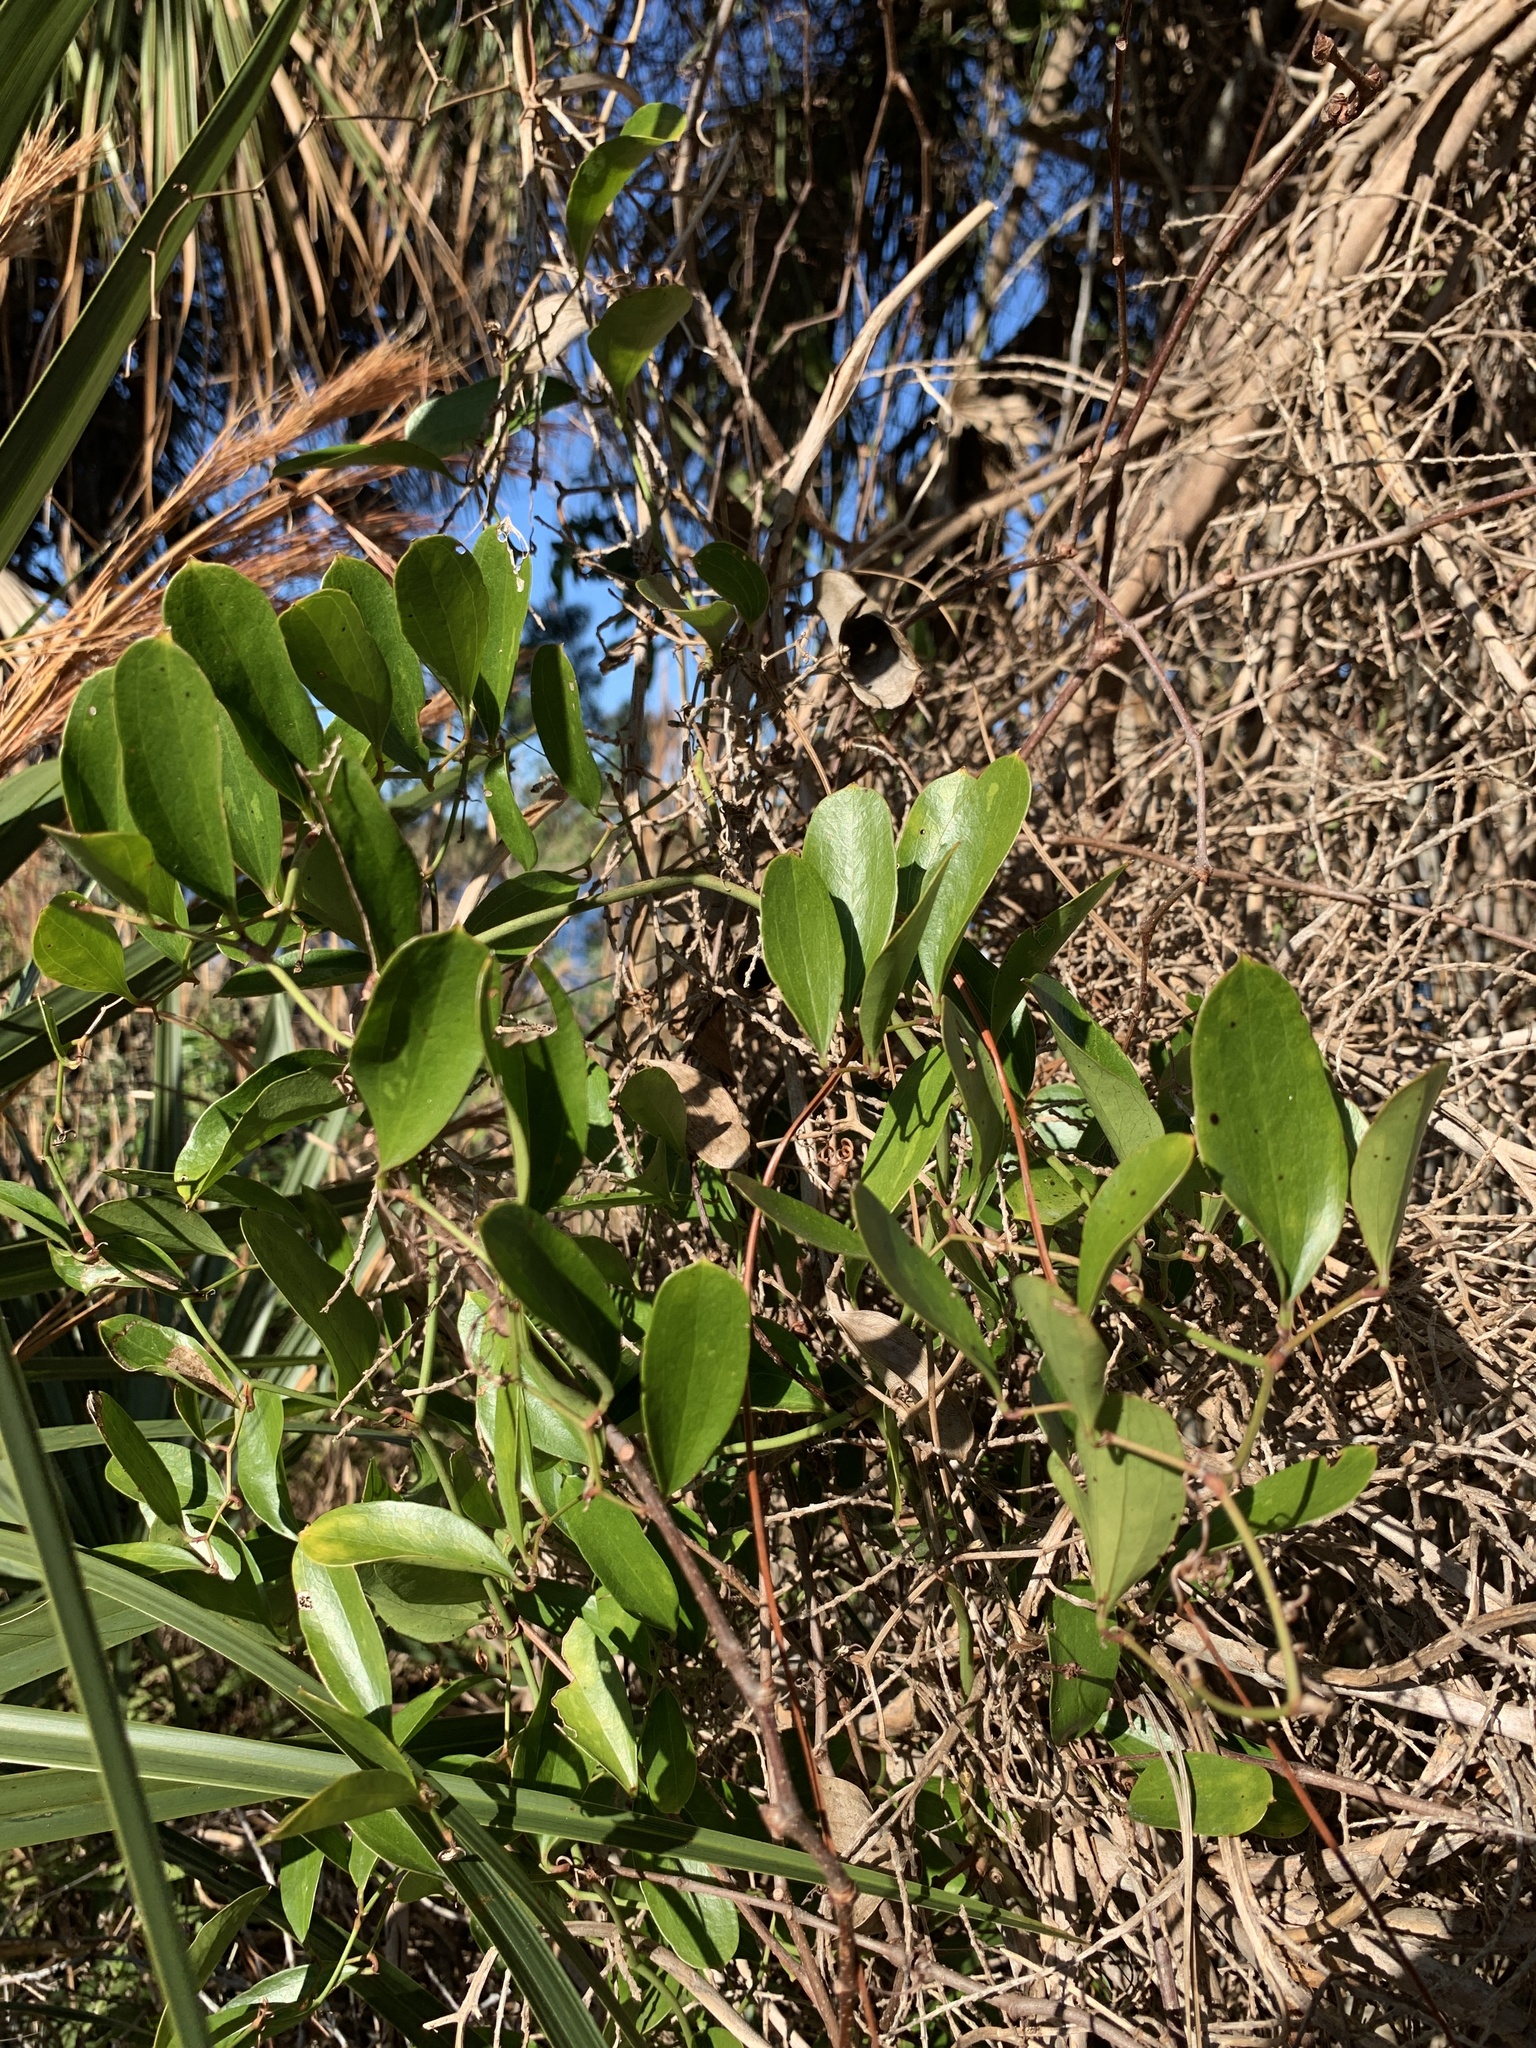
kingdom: Plantae
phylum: Tracheophyta
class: Liliopsida
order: Liliales
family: Smilacaceae
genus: Smilax
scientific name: Smilax auriculata
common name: Wild bamboo
